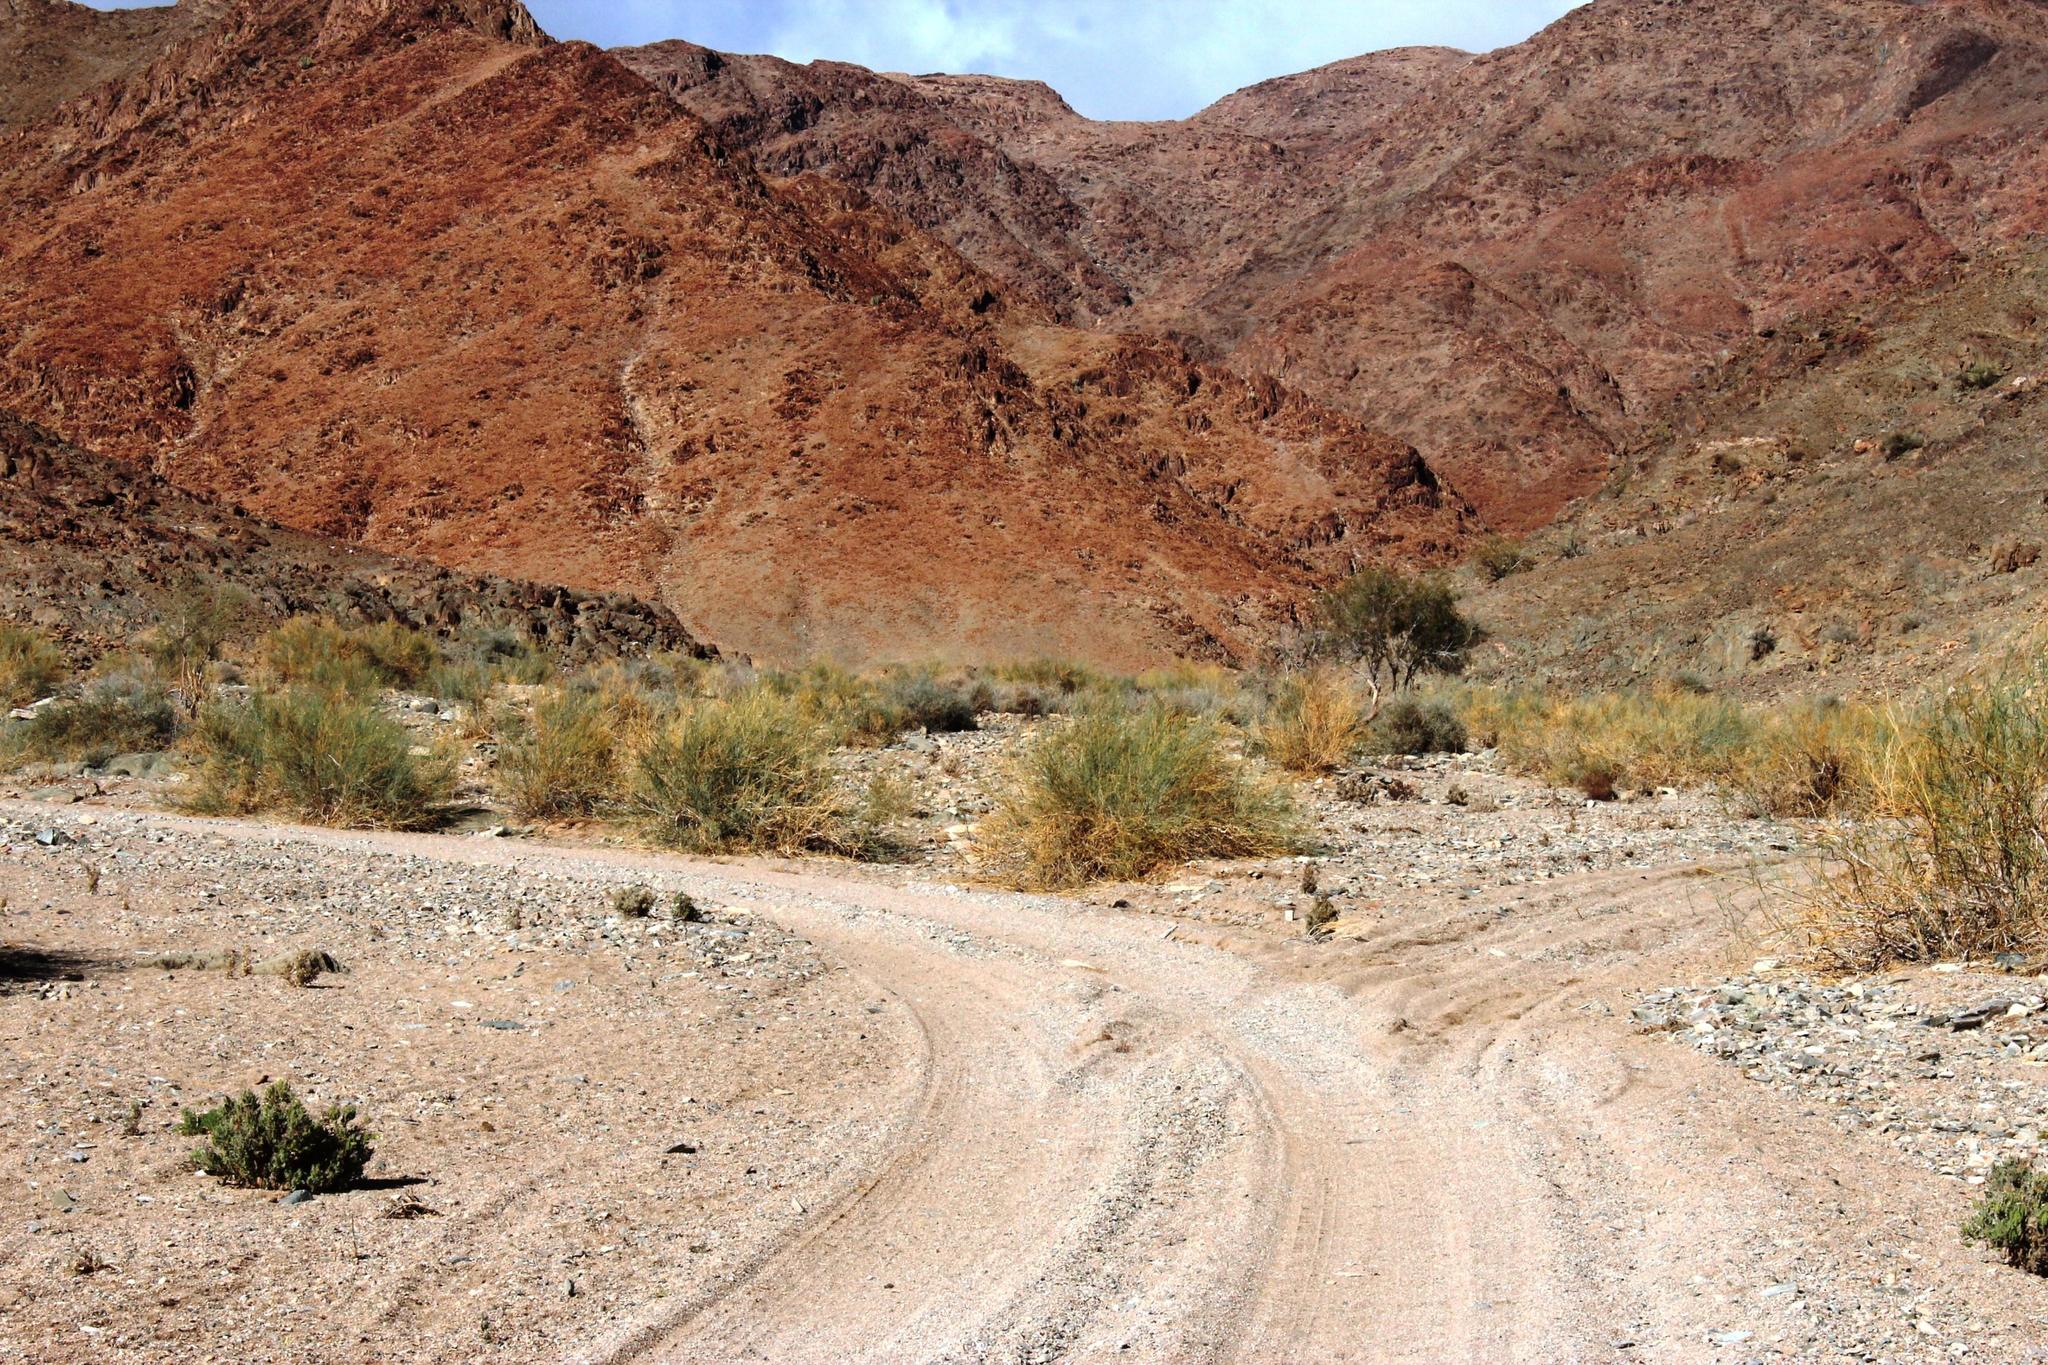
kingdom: Plantae
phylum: Tracheophyta
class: Magnoliopsida
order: Zygophyllales
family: Zygophyllaceae
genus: Sisyndite
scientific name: Sisyndite spartea
